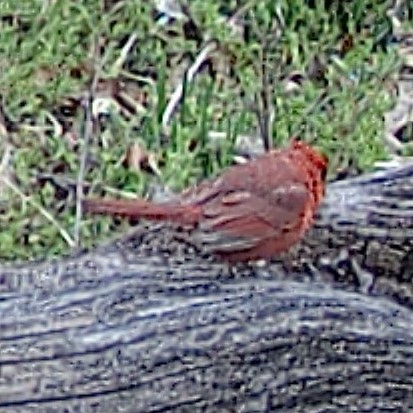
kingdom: Animalia
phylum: Chordata
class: Aves
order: Passeriformes
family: Cardinalidae
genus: Cardinalis
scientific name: Cardinalis cardinalis
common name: Northern cardinal
